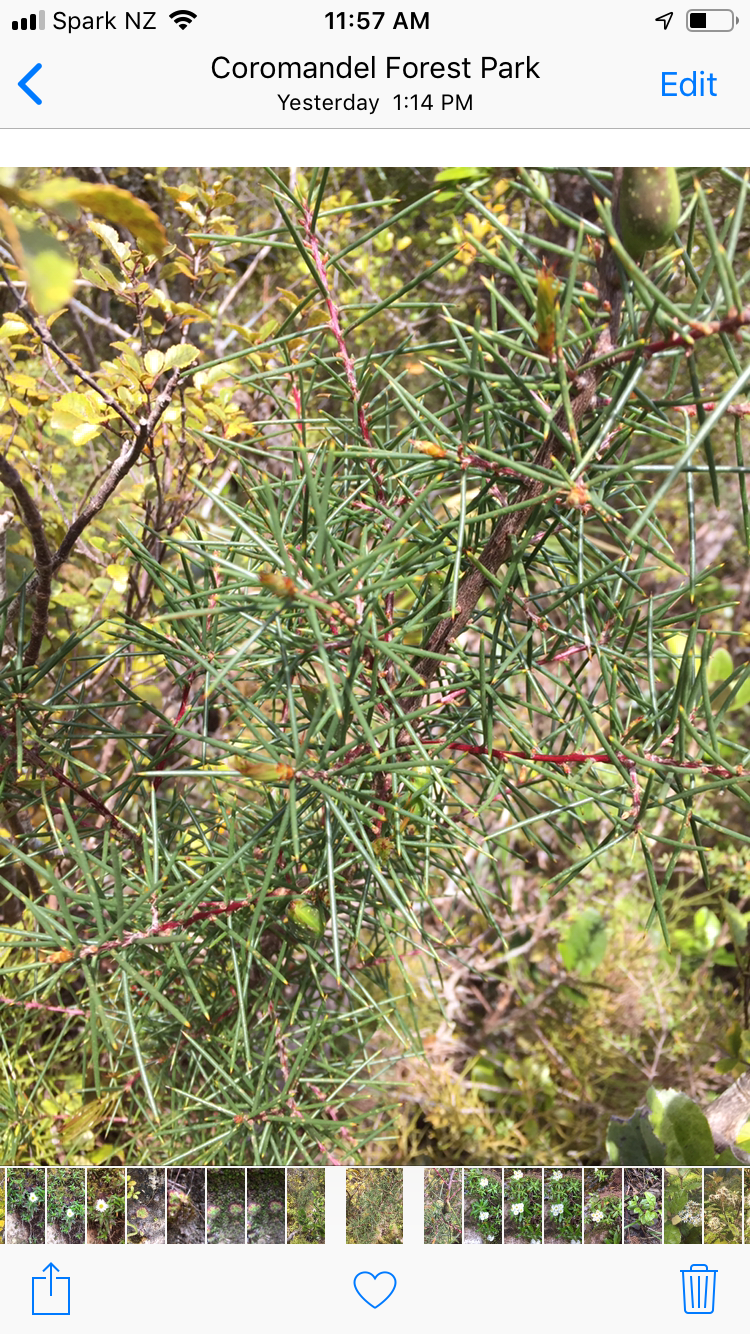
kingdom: Plantae
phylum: Tracheophyta
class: Magnoliopsida
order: Proteales
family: Proteaceae
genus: Hakea
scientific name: Hakea sericea
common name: Needle bush
